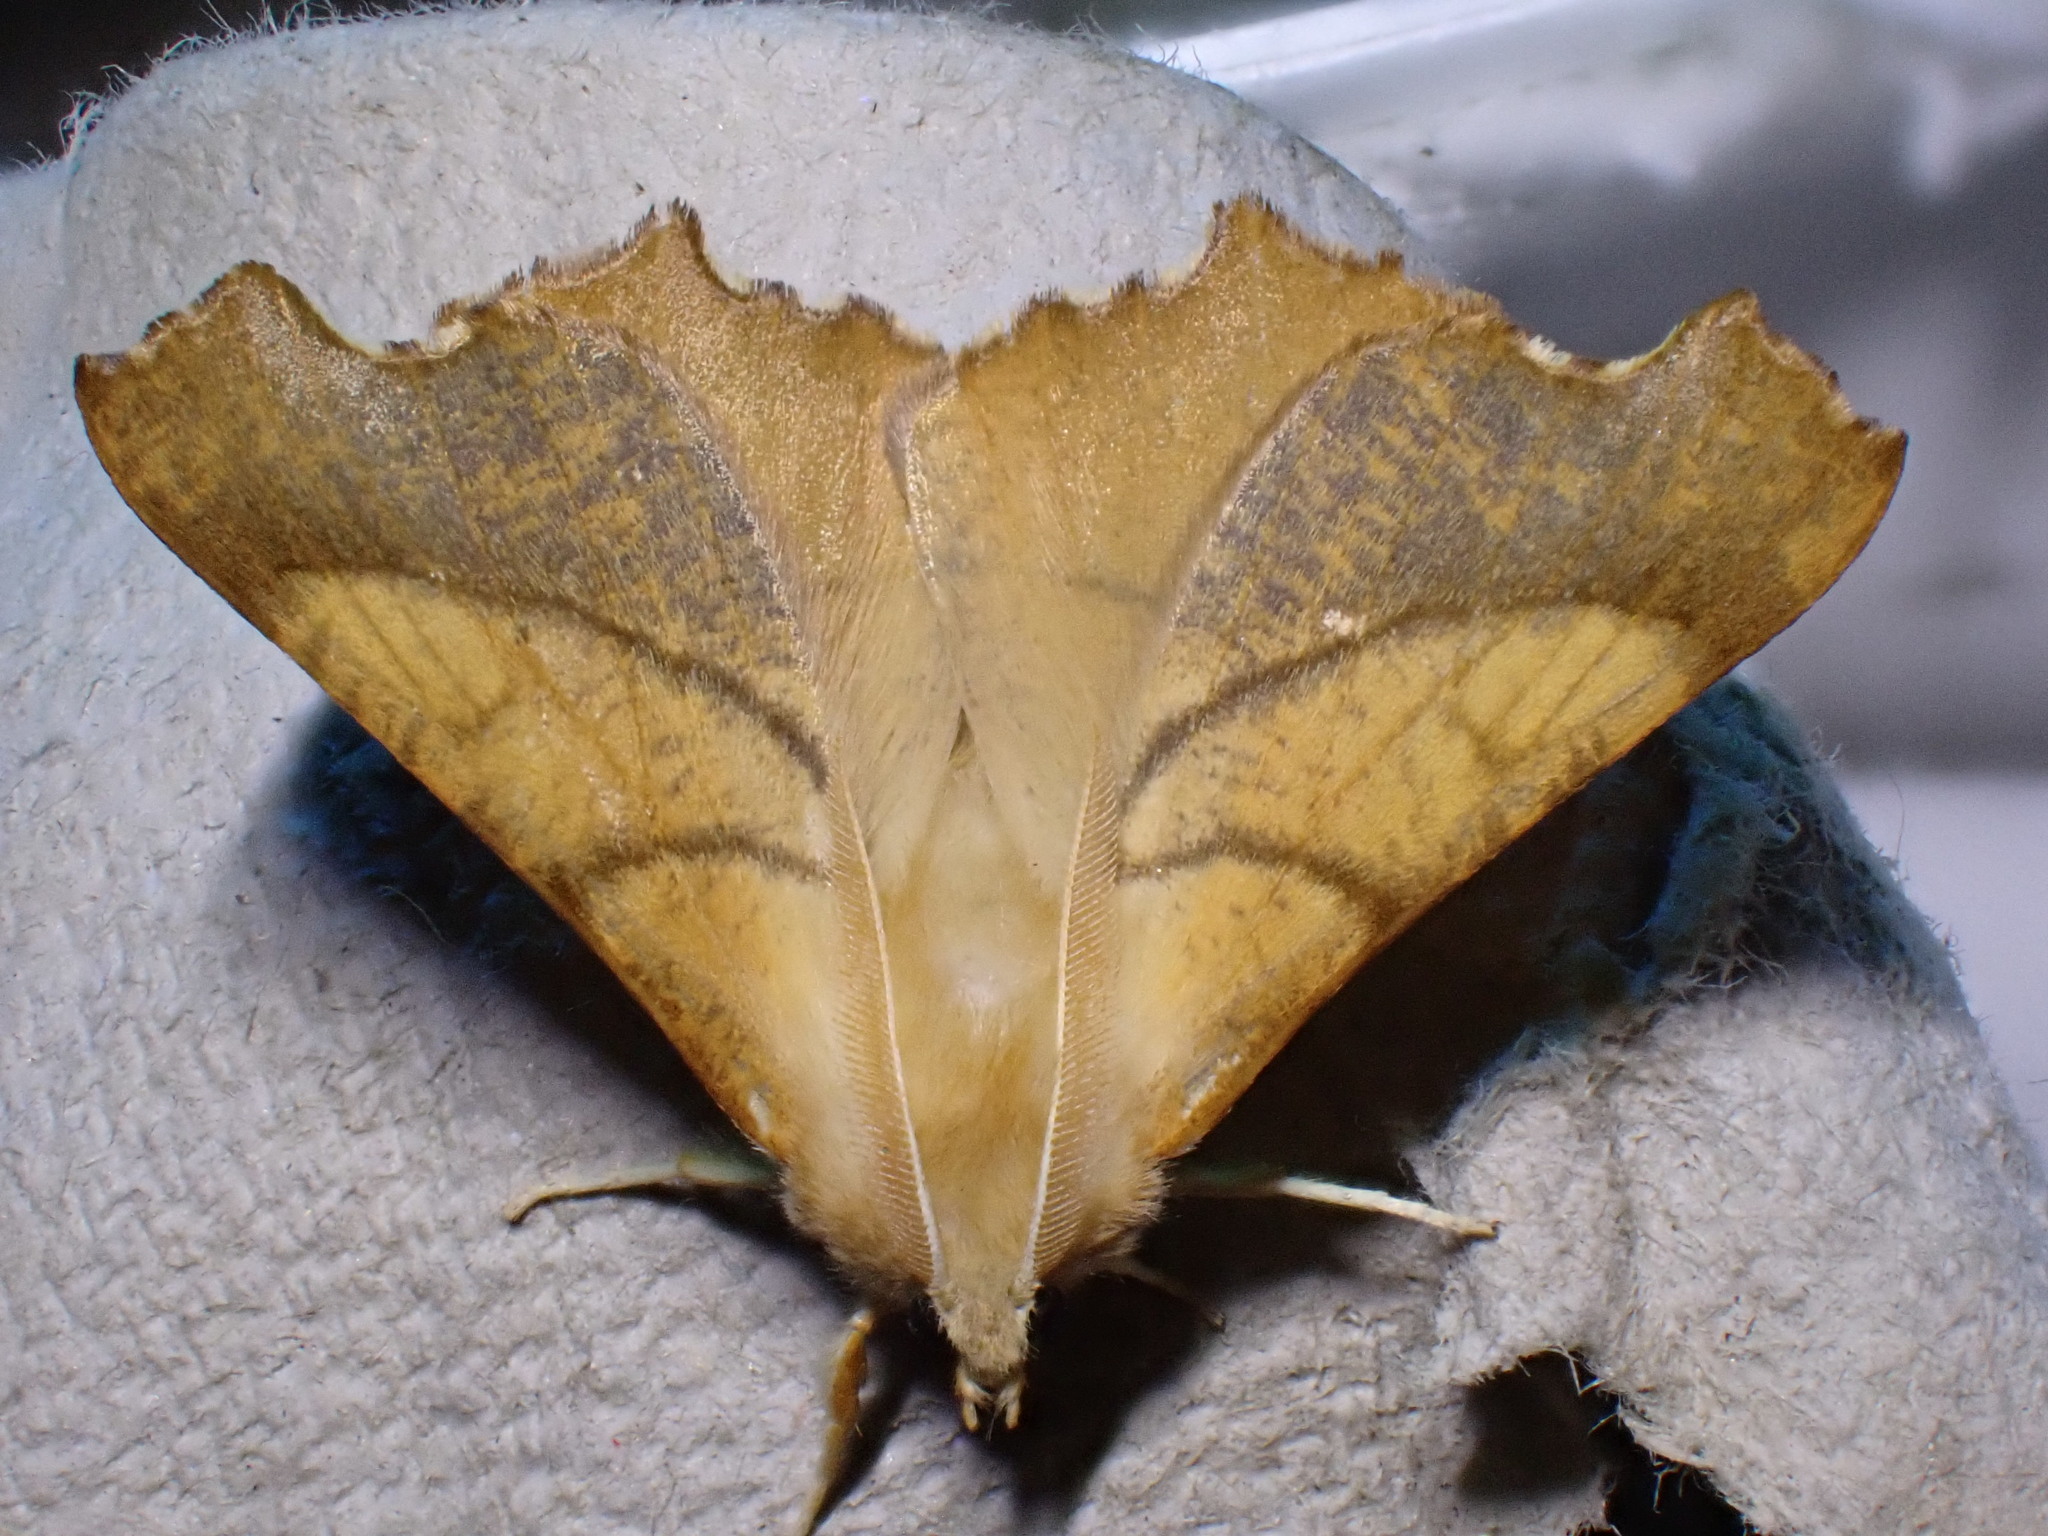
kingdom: Animalia
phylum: Arthropoda
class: Insecta
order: Lepidoptera
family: Geometridae
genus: Ennomos
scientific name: Ennomos fuscantaria
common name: Dusky thorn
